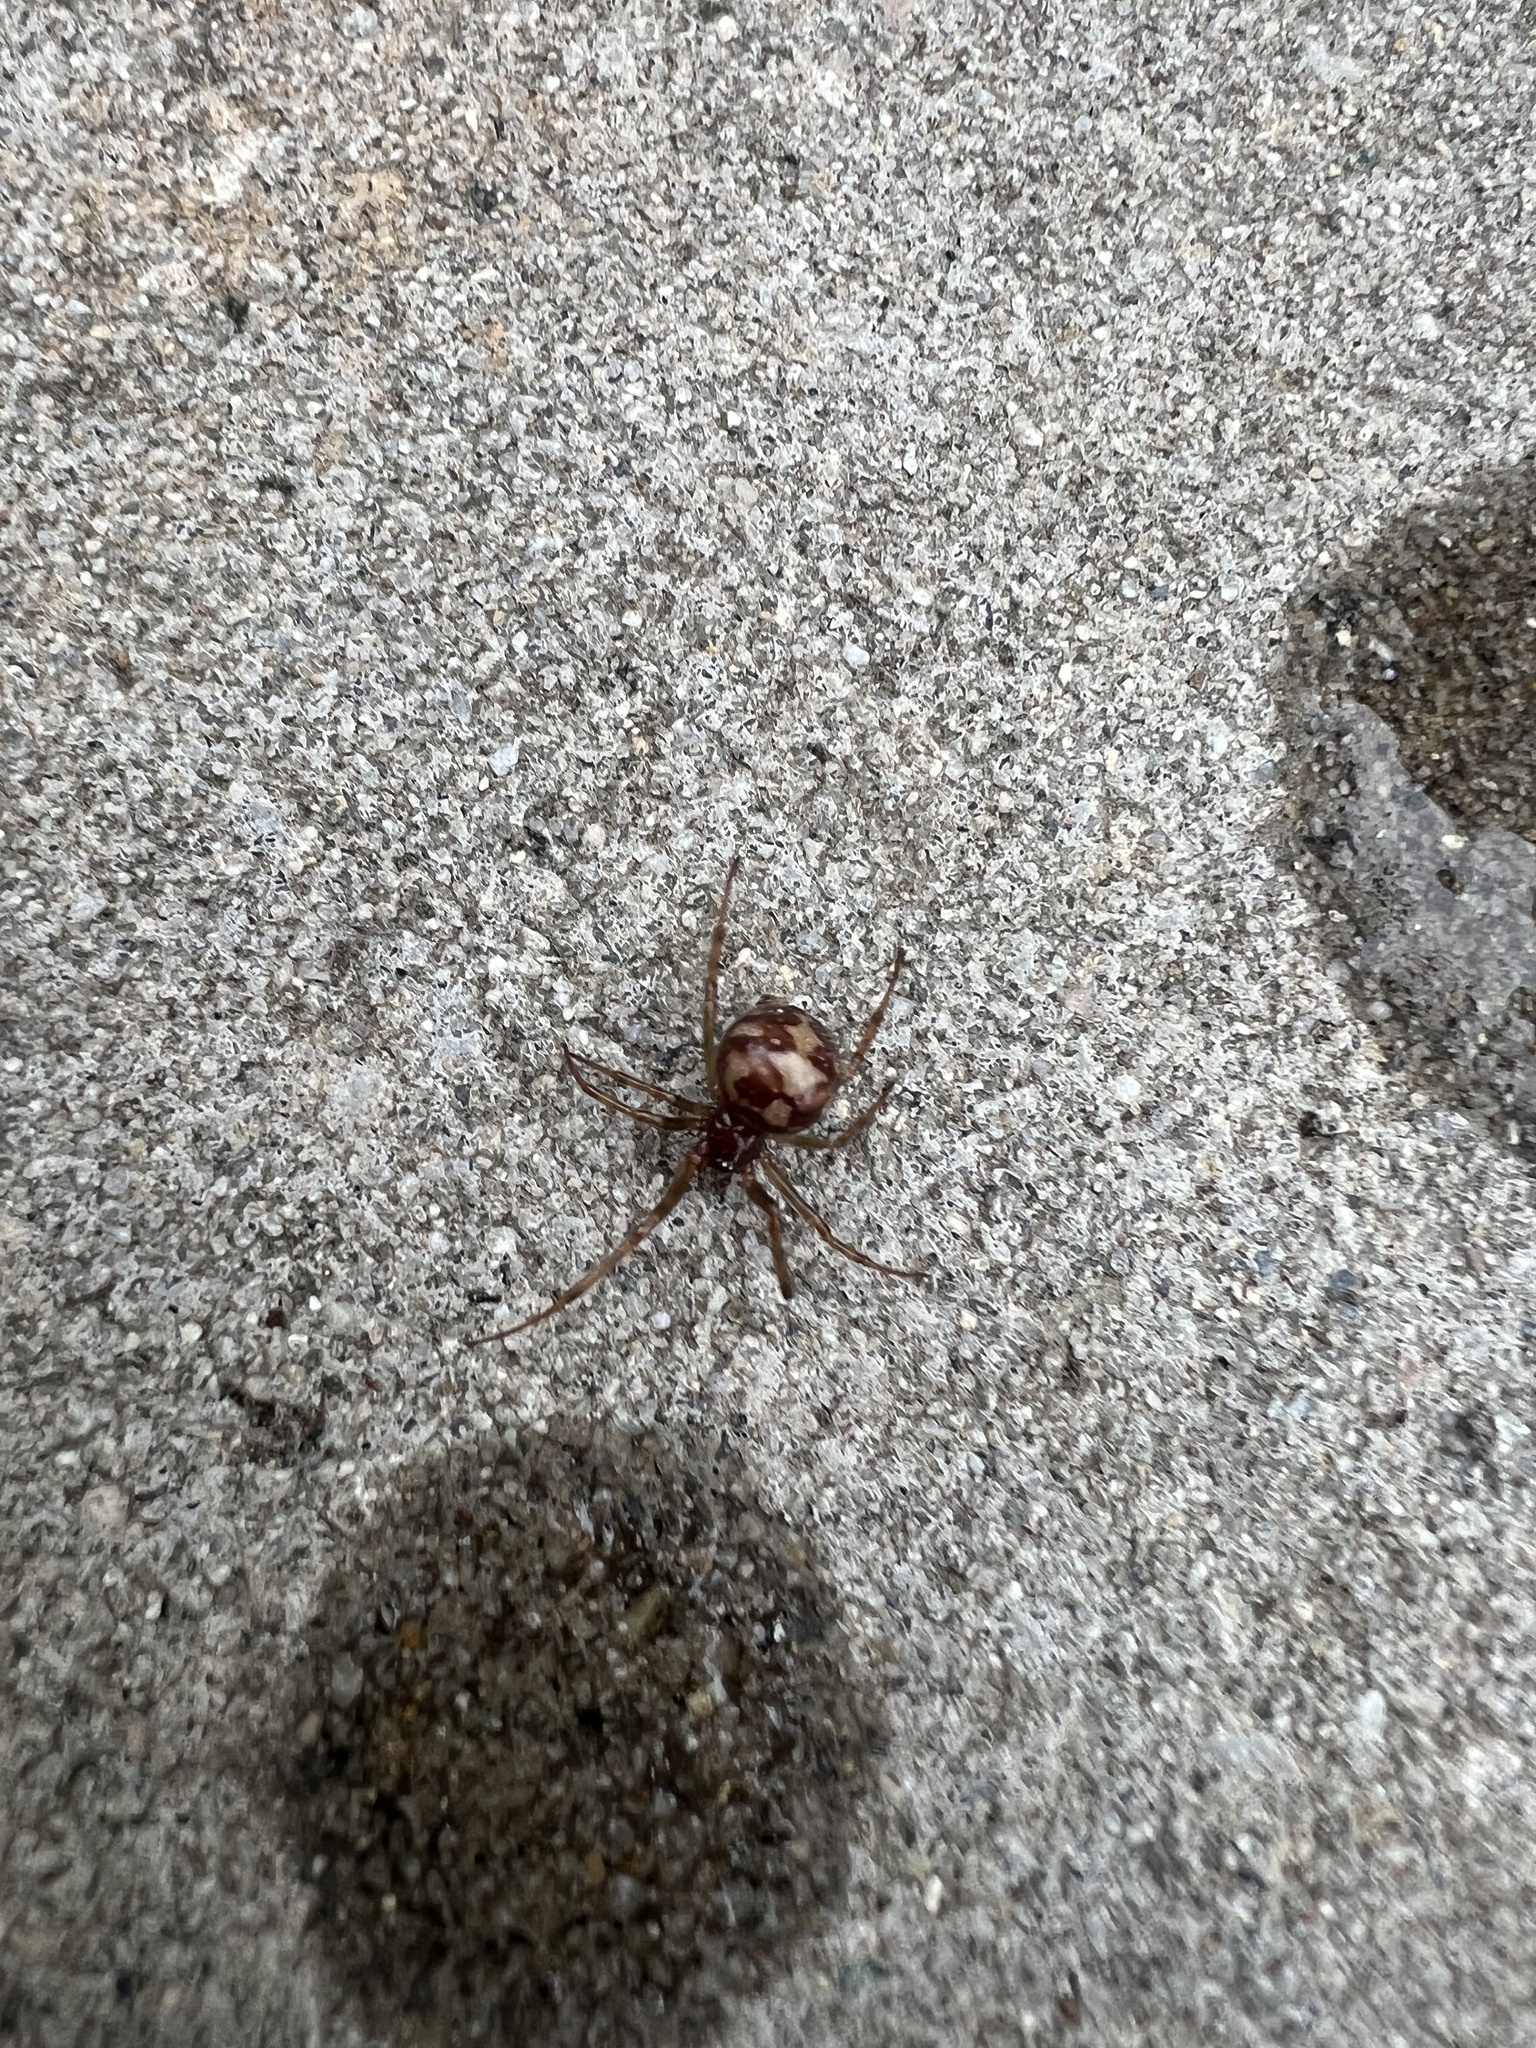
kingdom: Animalia
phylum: Arthropoda
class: Arachnida
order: Araneae
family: Theridiidae
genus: Steatoda
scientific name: Steatoda triangulosa
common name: Triangulate bud spider
